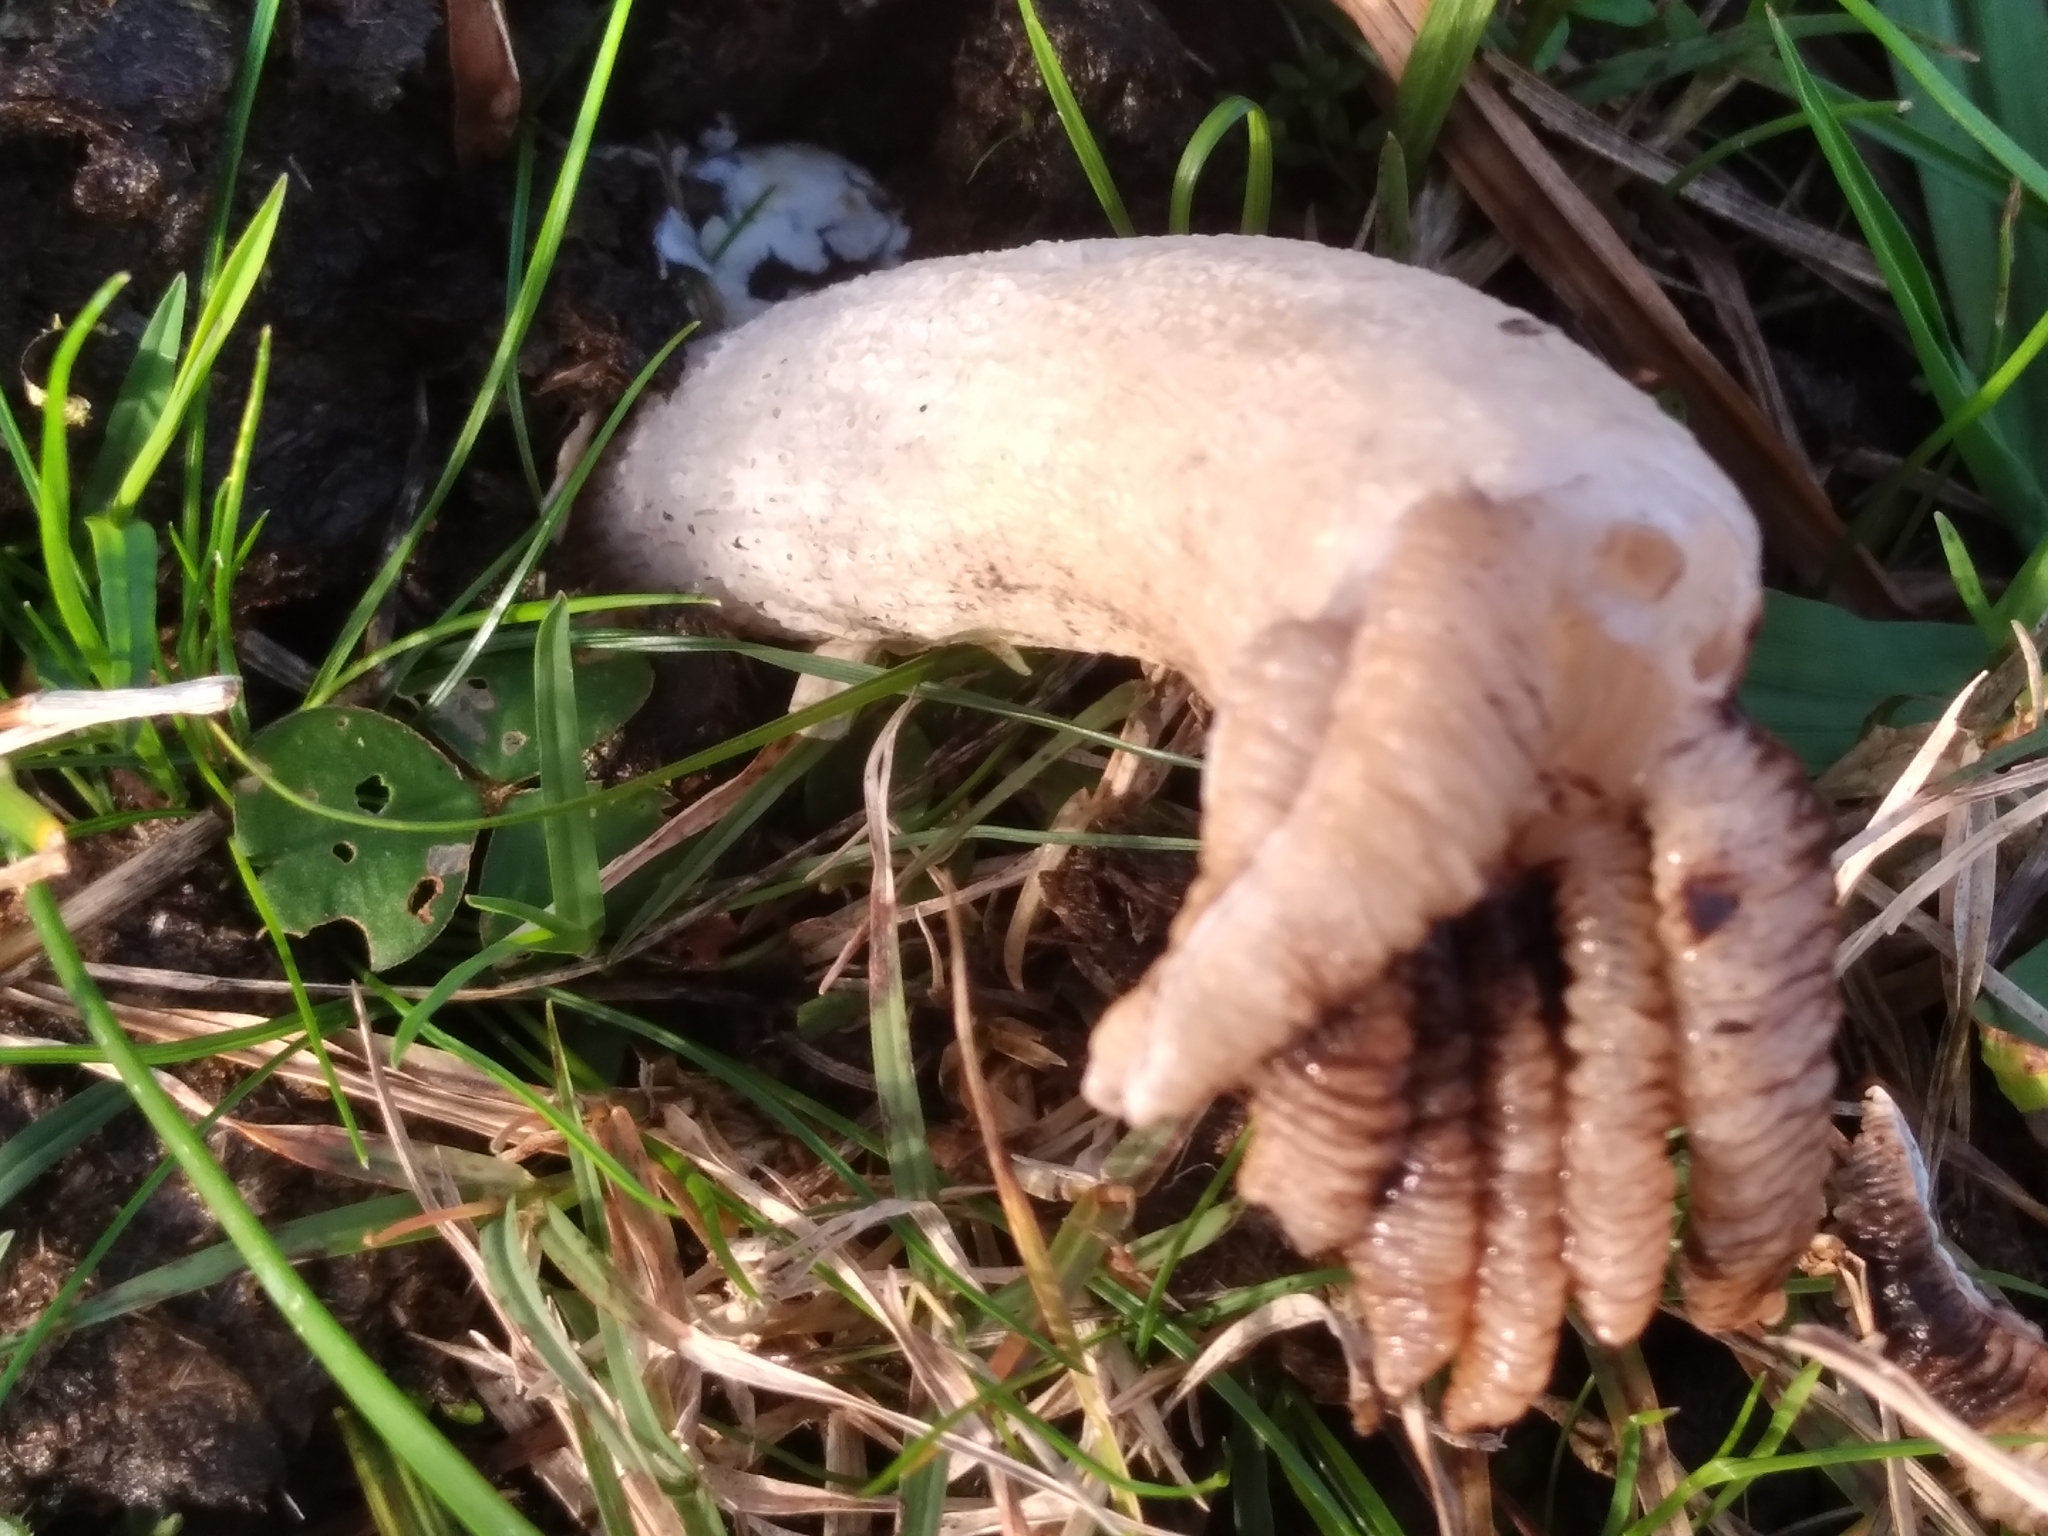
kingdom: Fungi
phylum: Basidiomycota
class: Agaricomycetes
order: Phallales
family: Phallaceae
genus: Lysurus
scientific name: Lysurus cruciatus
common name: Lizard's claw
